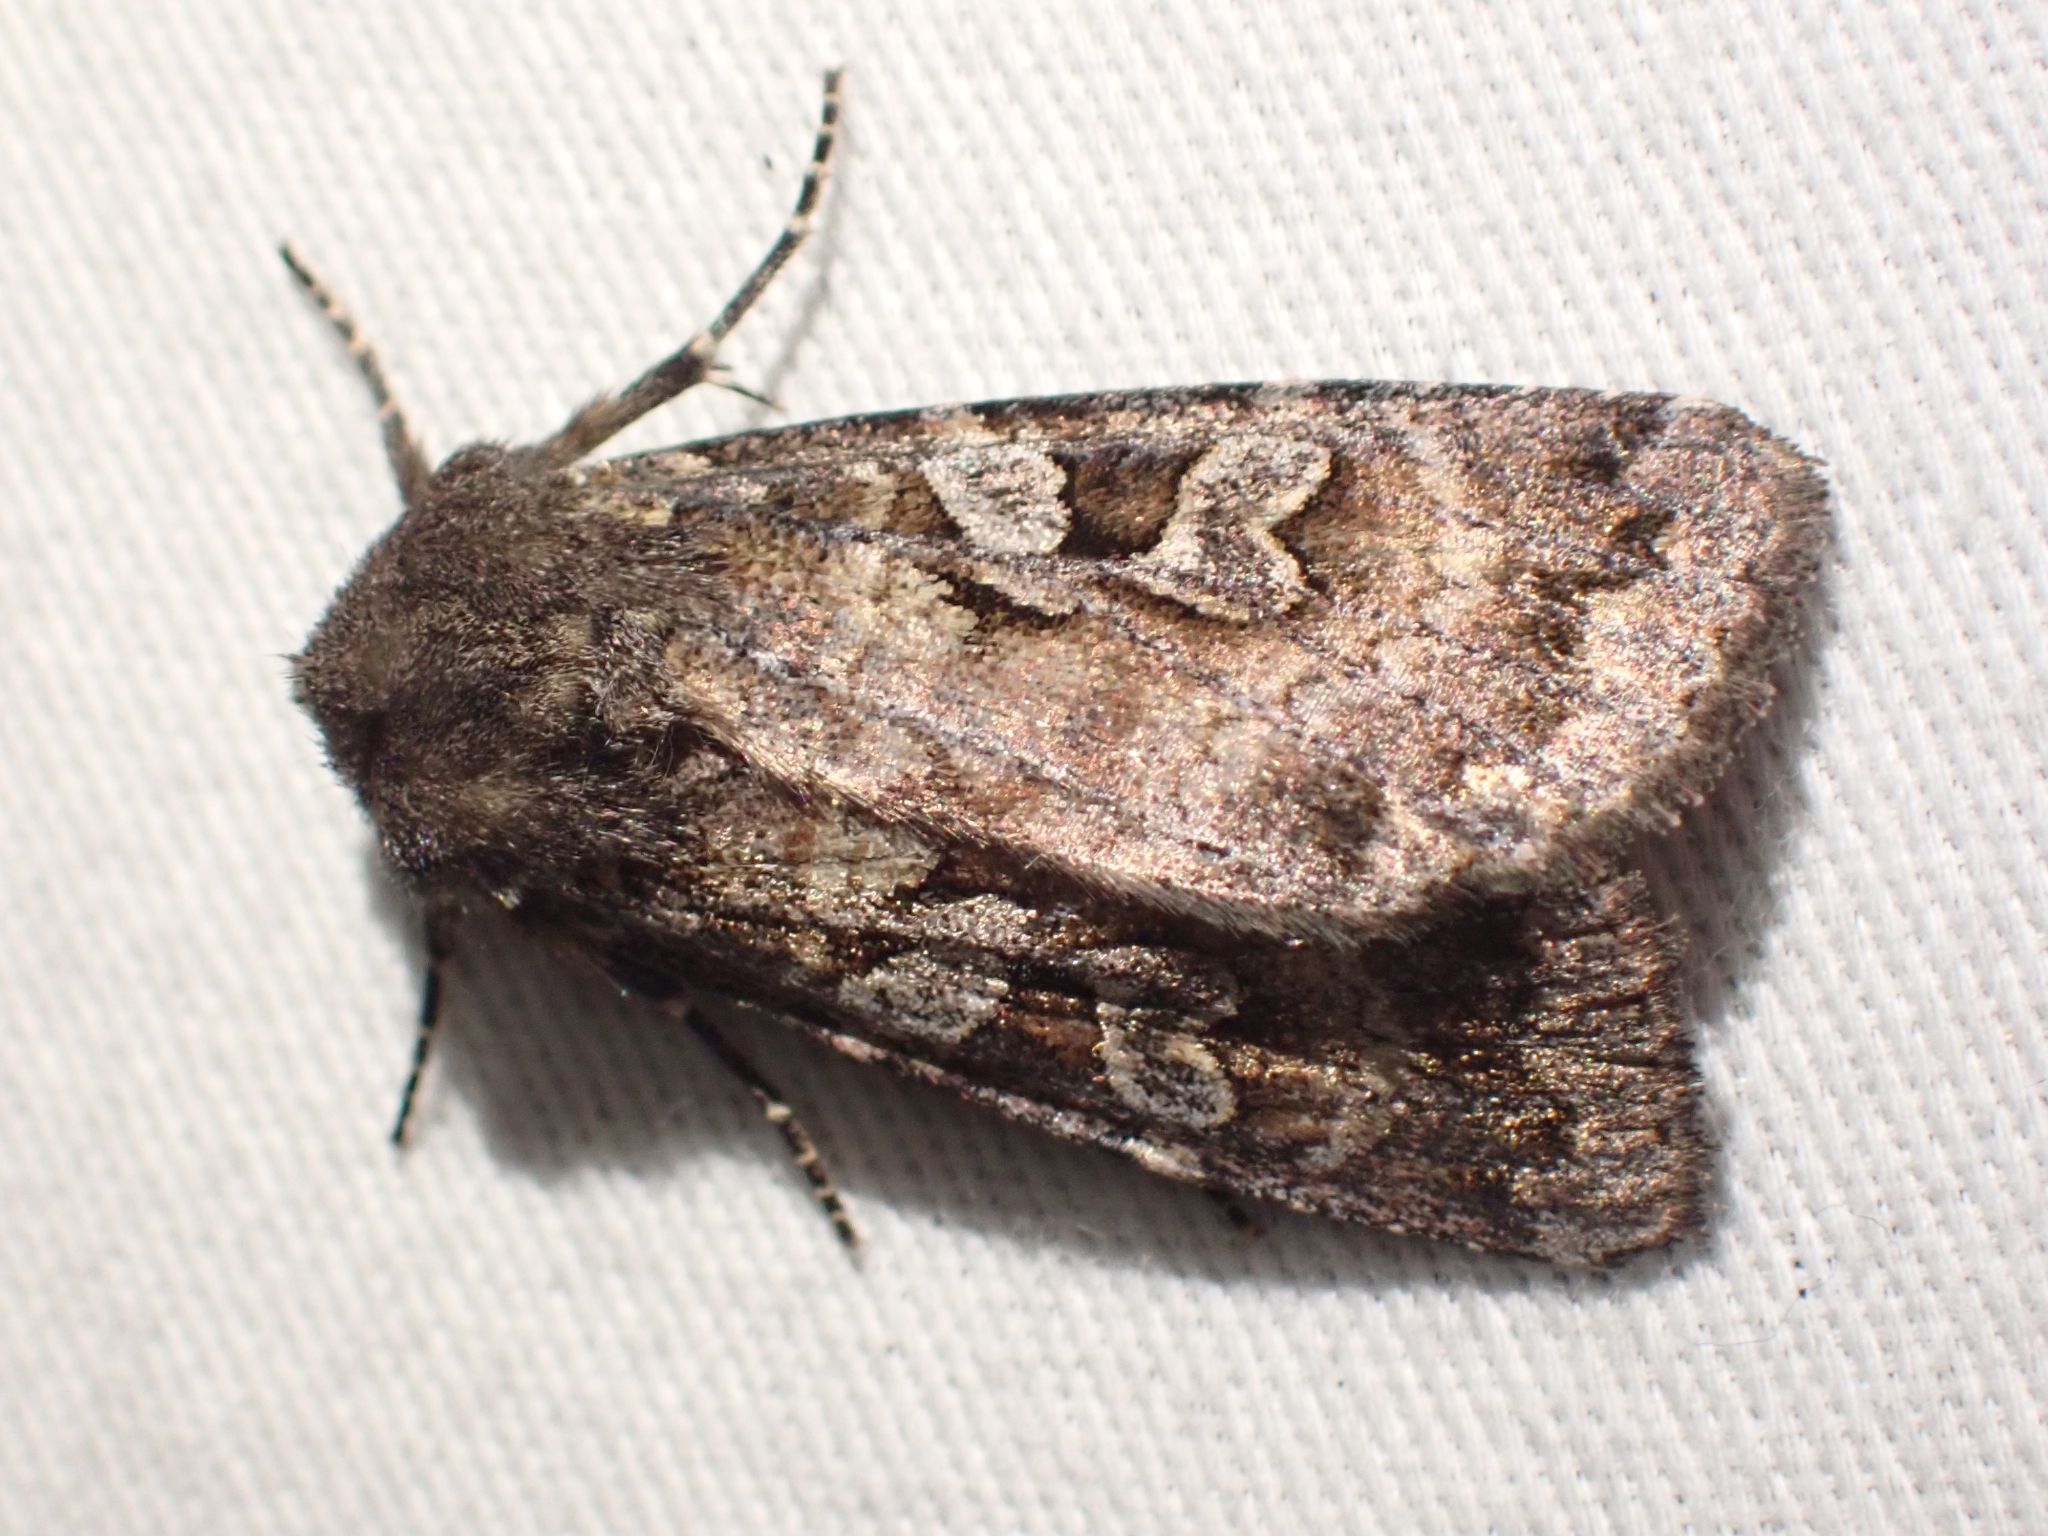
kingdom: Animalia
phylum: Arthropoda
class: Insecta
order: Lepidoptera
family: Noctuidae
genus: Eurois
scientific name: Eurois astricta
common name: Great brown dart
